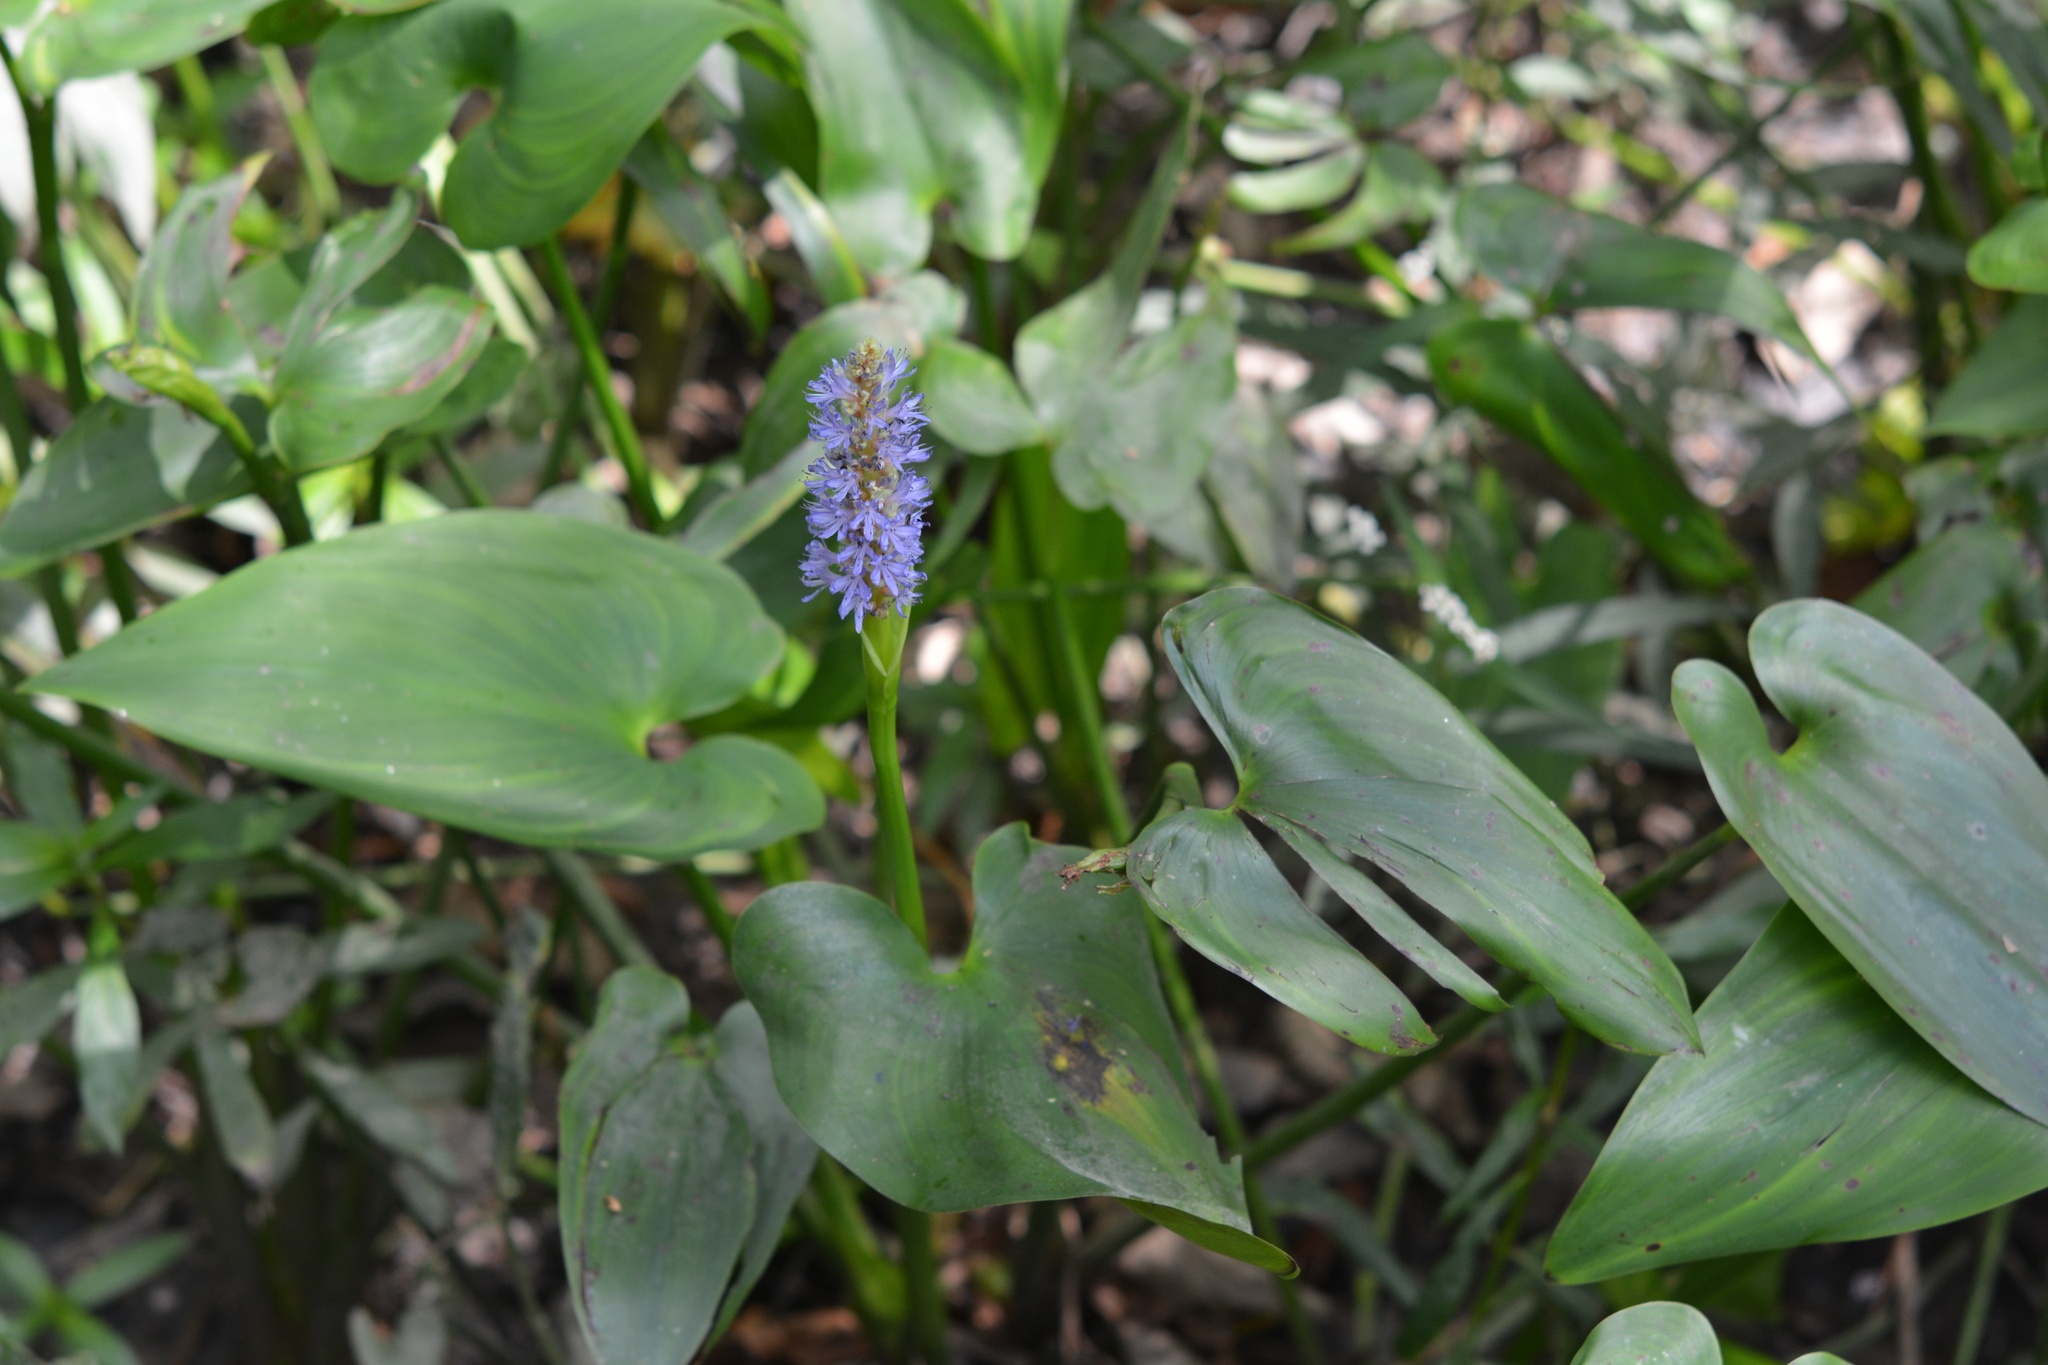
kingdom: Plantae
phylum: Tracheophyta
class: Liliopsida
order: Commelinales
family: Pontederiaceae
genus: Pontederia
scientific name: Pontederia cordata
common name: Pickerelweed
